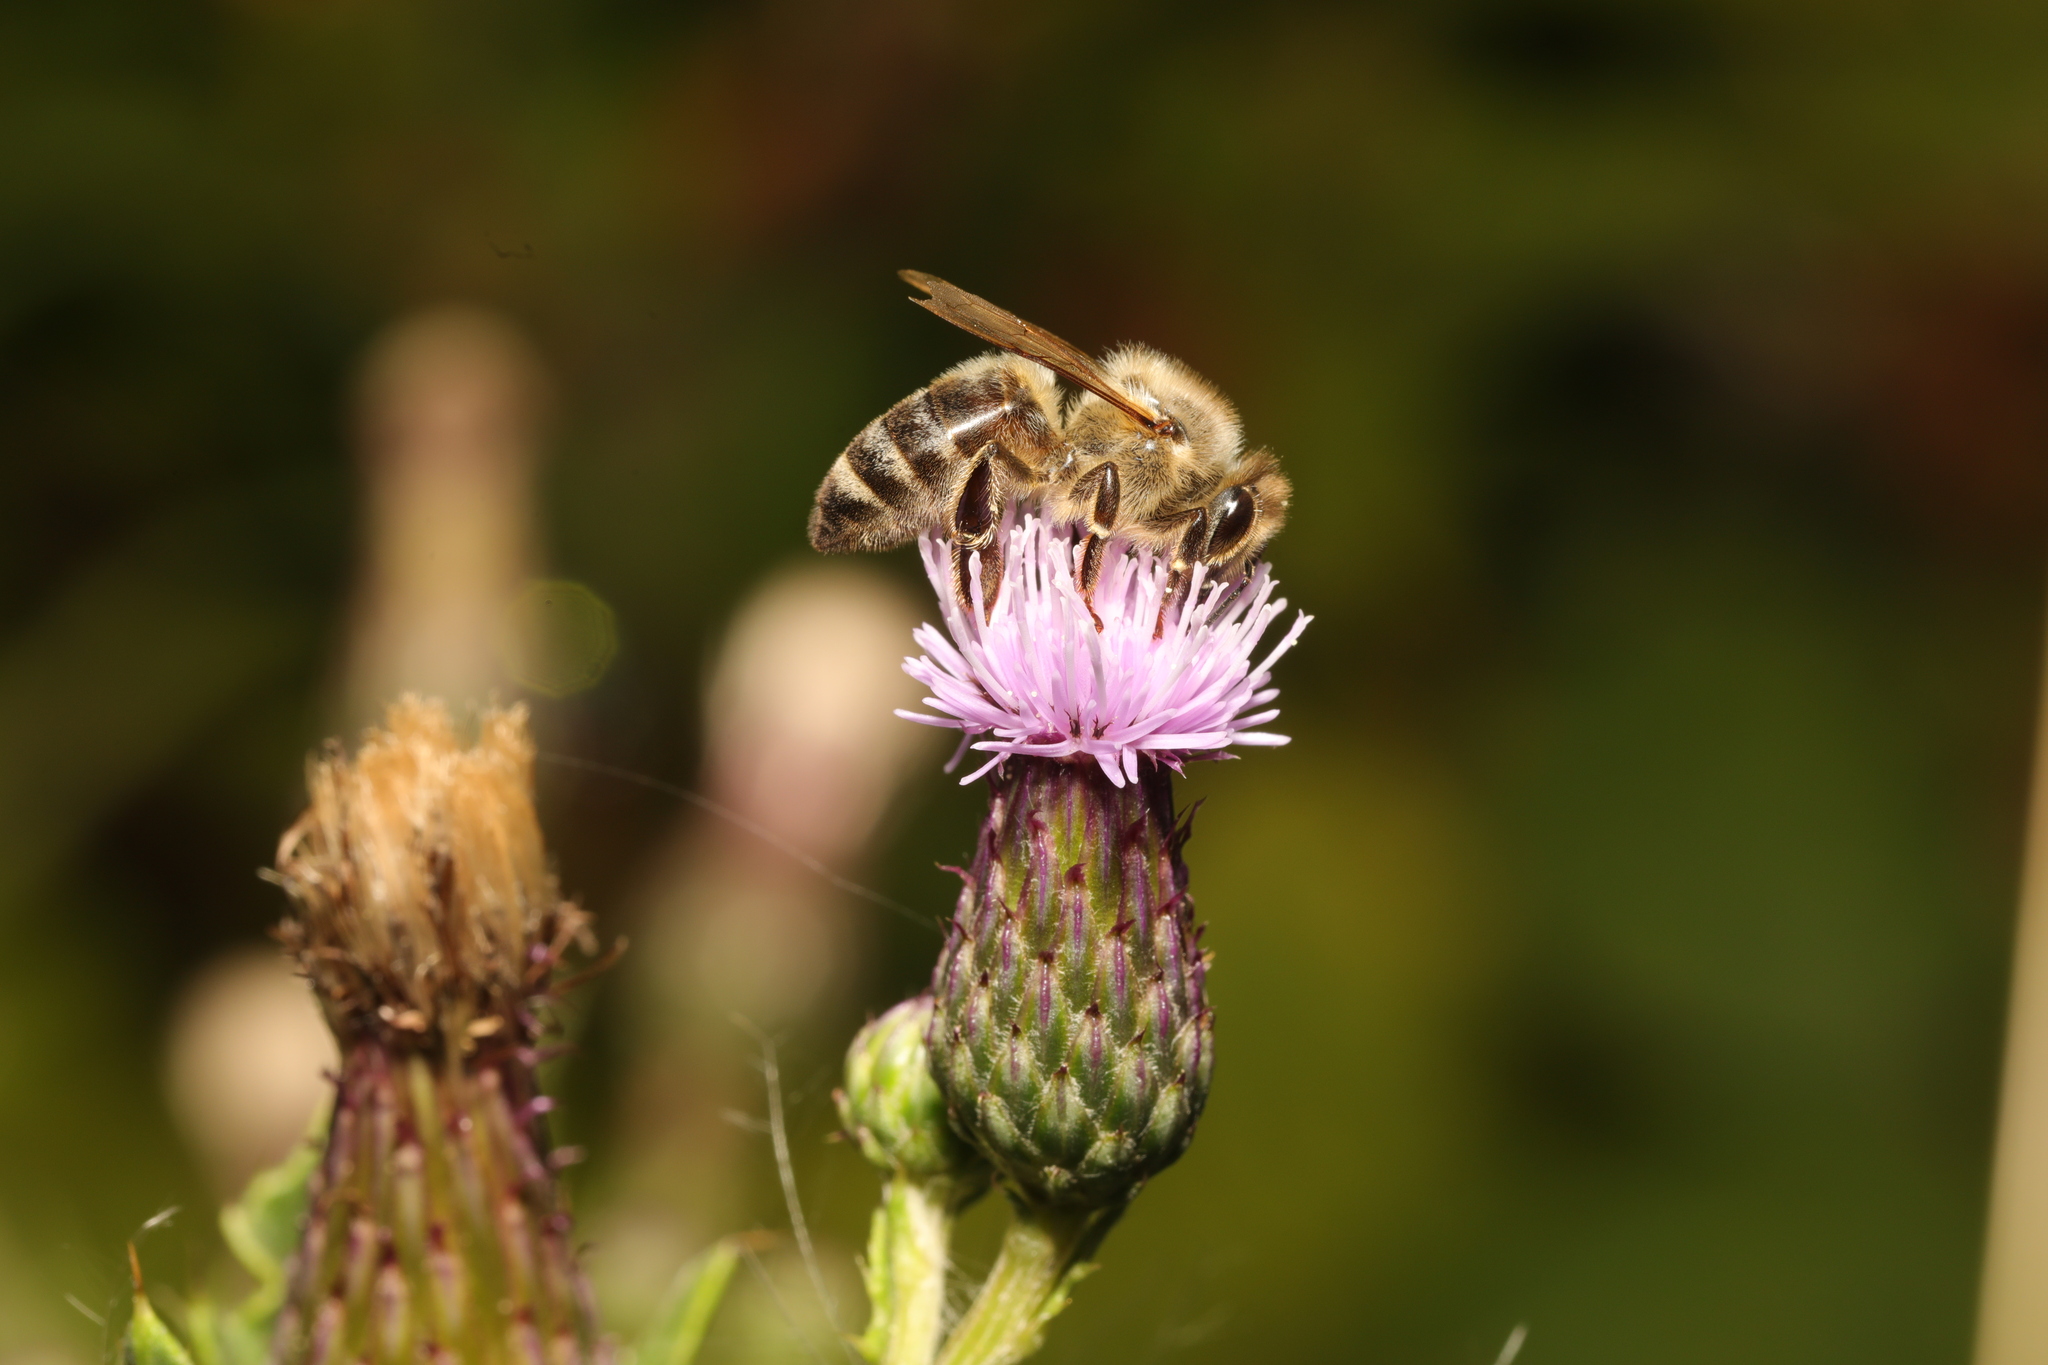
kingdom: Animalia
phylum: Arthropoda
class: Insecta
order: Hymenoptera
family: Apidae
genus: Apis
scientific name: Apis mellifera
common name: Honey bee
